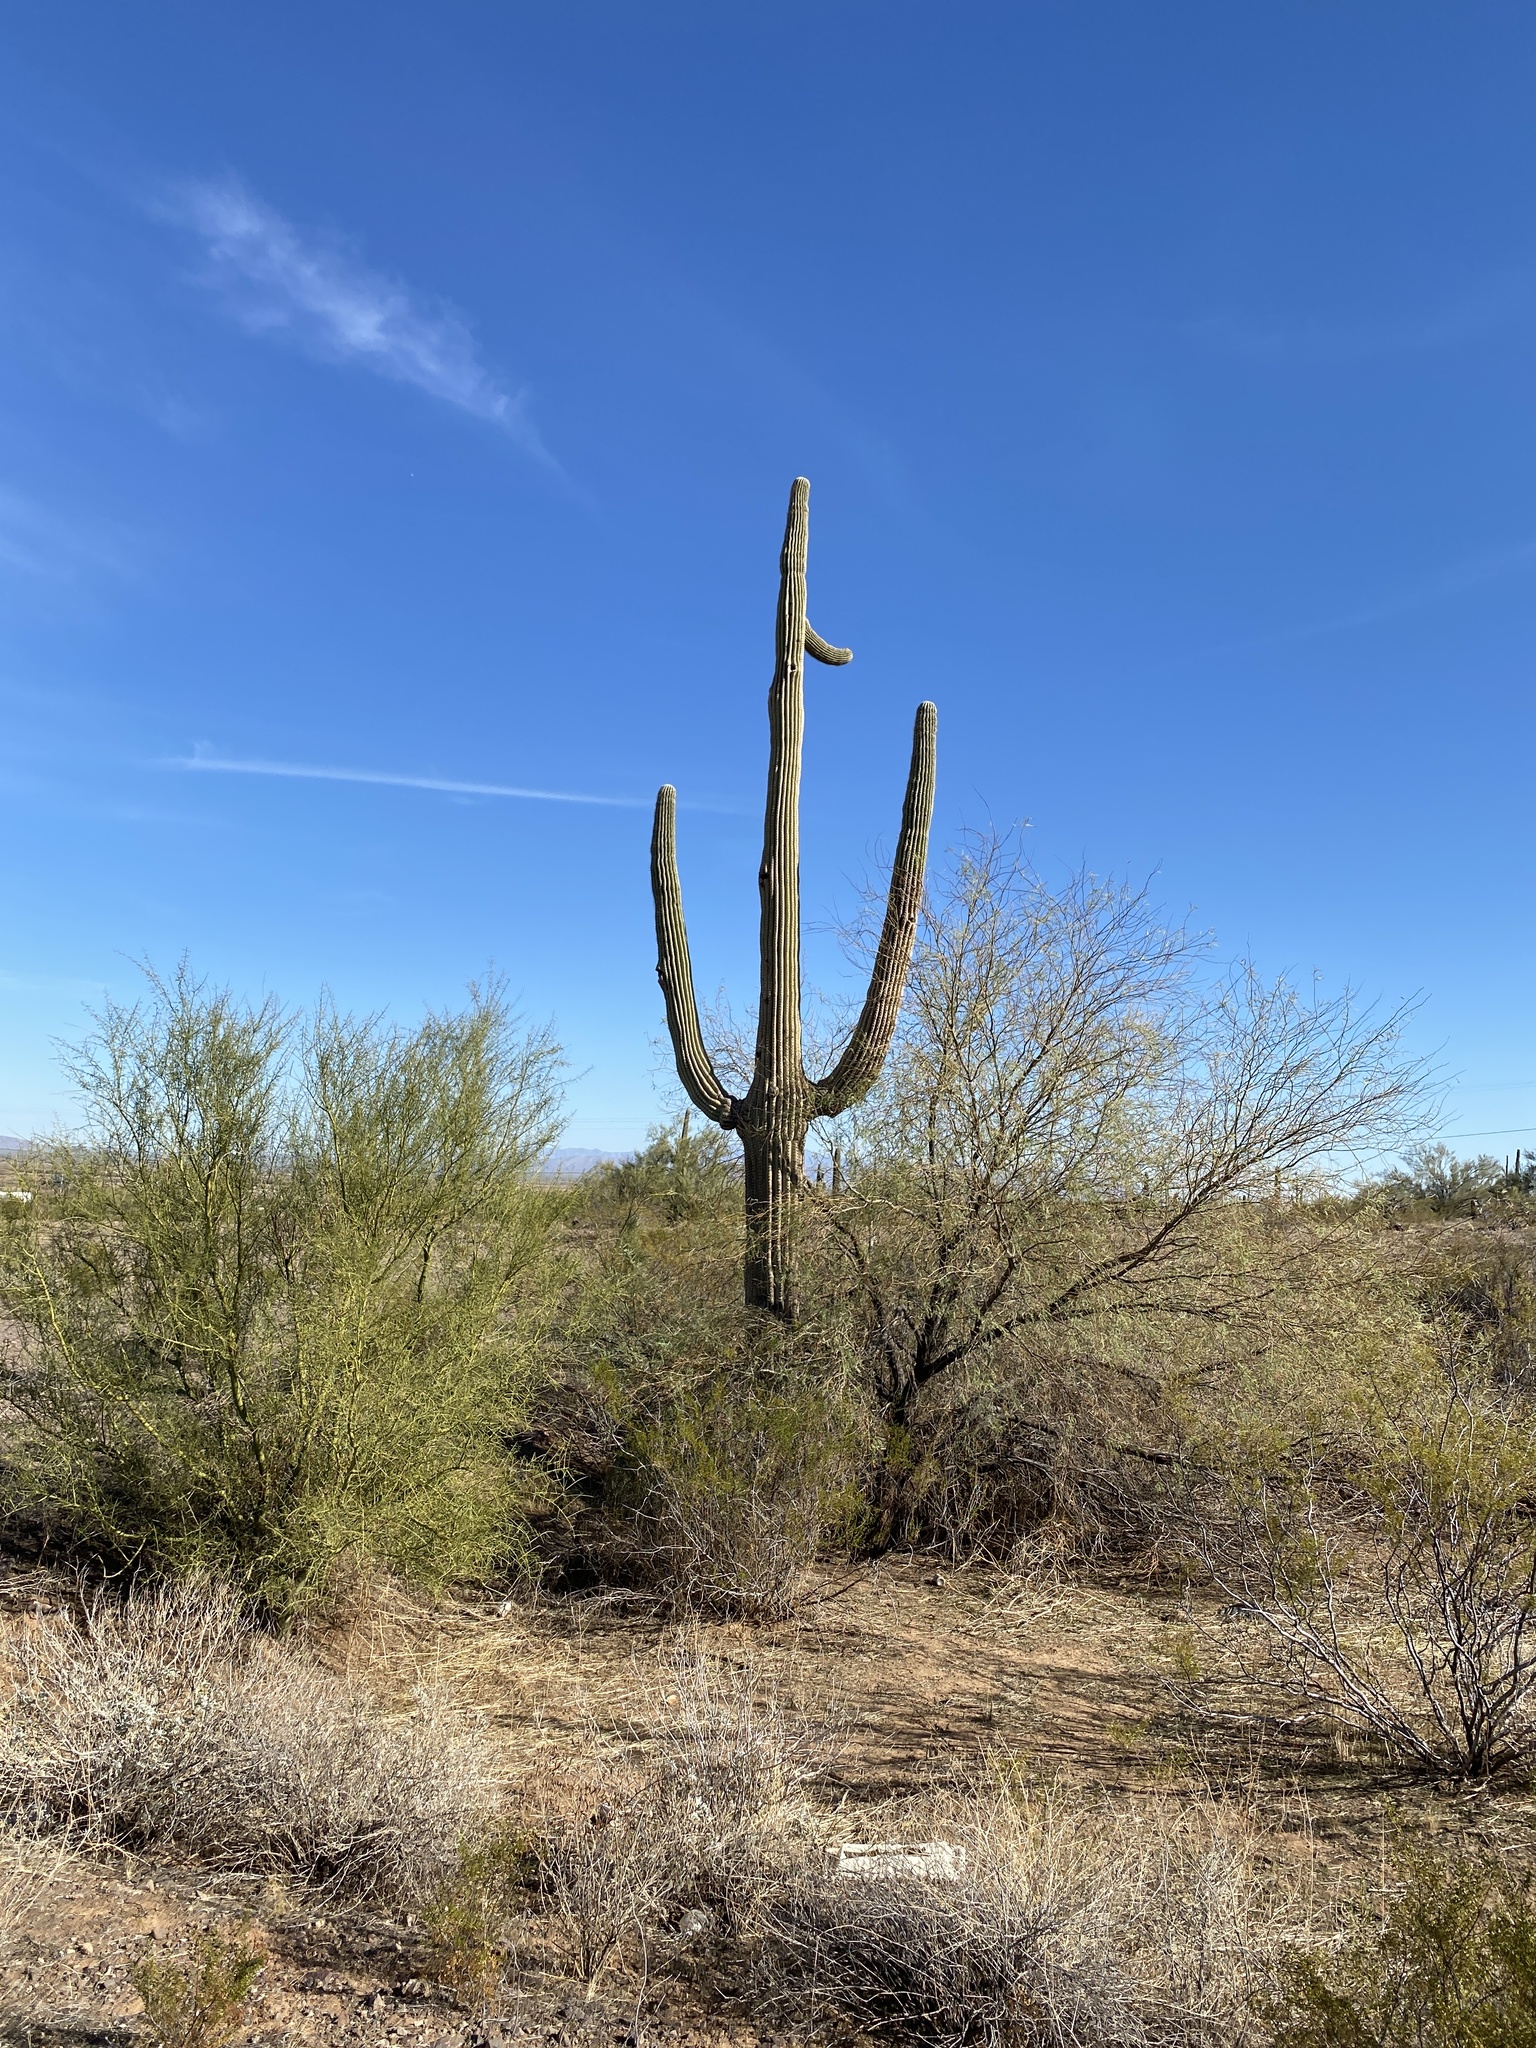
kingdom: Plantae
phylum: Tracheophyta
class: Magnoliopsida
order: Caryophyllales
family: Cactaceae
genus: Carnegiea
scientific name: Carnegiea gigantea
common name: Saguaro
